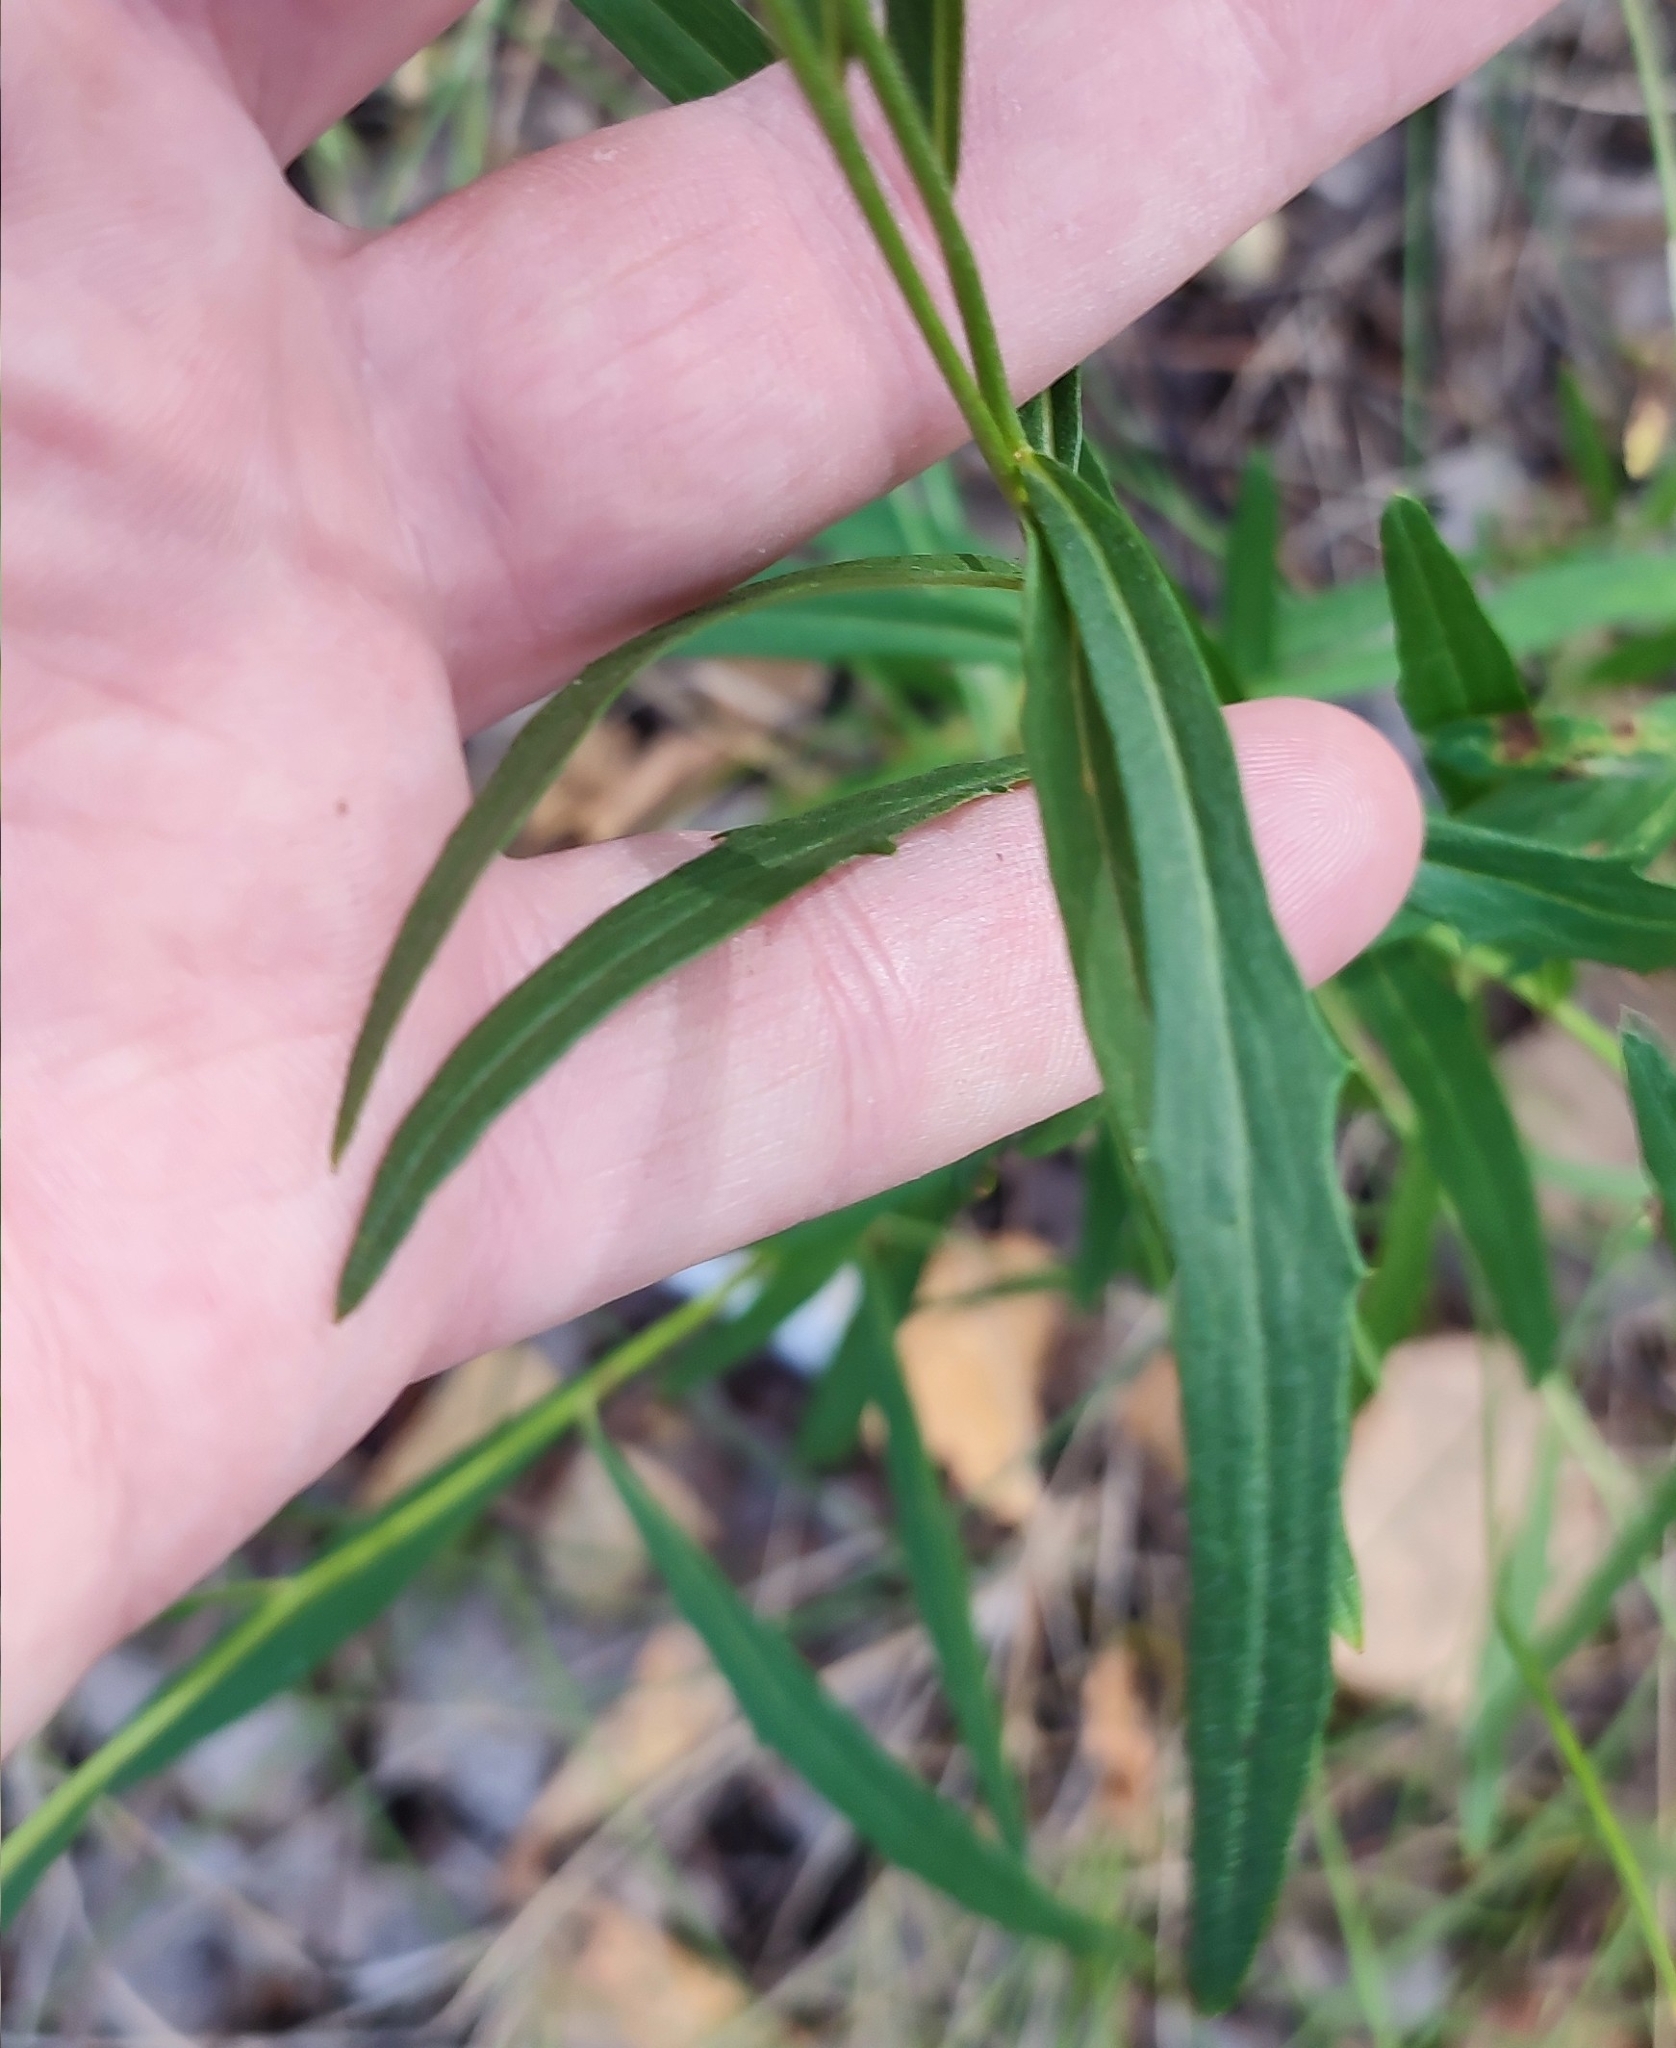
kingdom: Plantae
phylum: Tracheophyta
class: Magnoliopsida
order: Asterales
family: Asteraceae
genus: Hieracium
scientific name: Hieracium umbellatum
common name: Northern hawkweed
